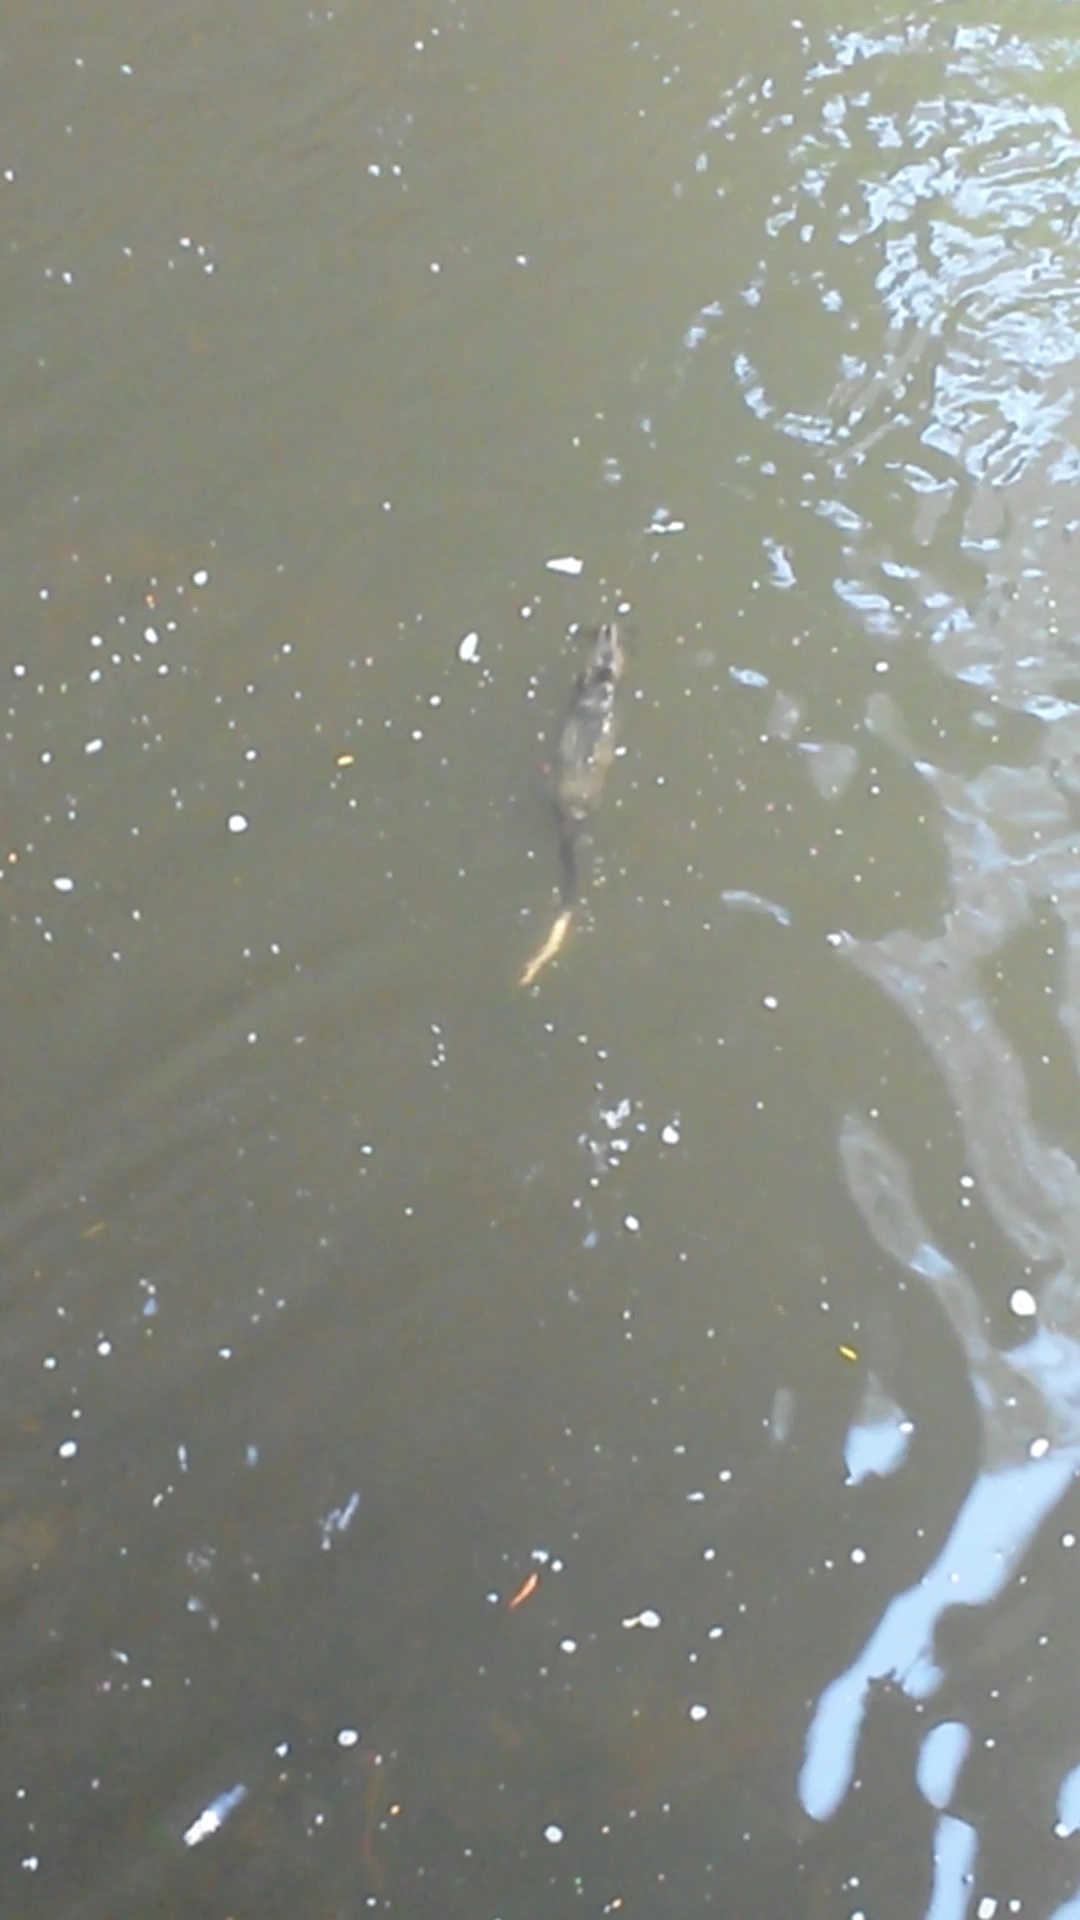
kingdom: Animalia
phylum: Chordata
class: Mammalia
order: Rodentia
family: Muridae
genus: Hydromys
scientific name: Hydromys chrysogaster
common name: Common water rat
